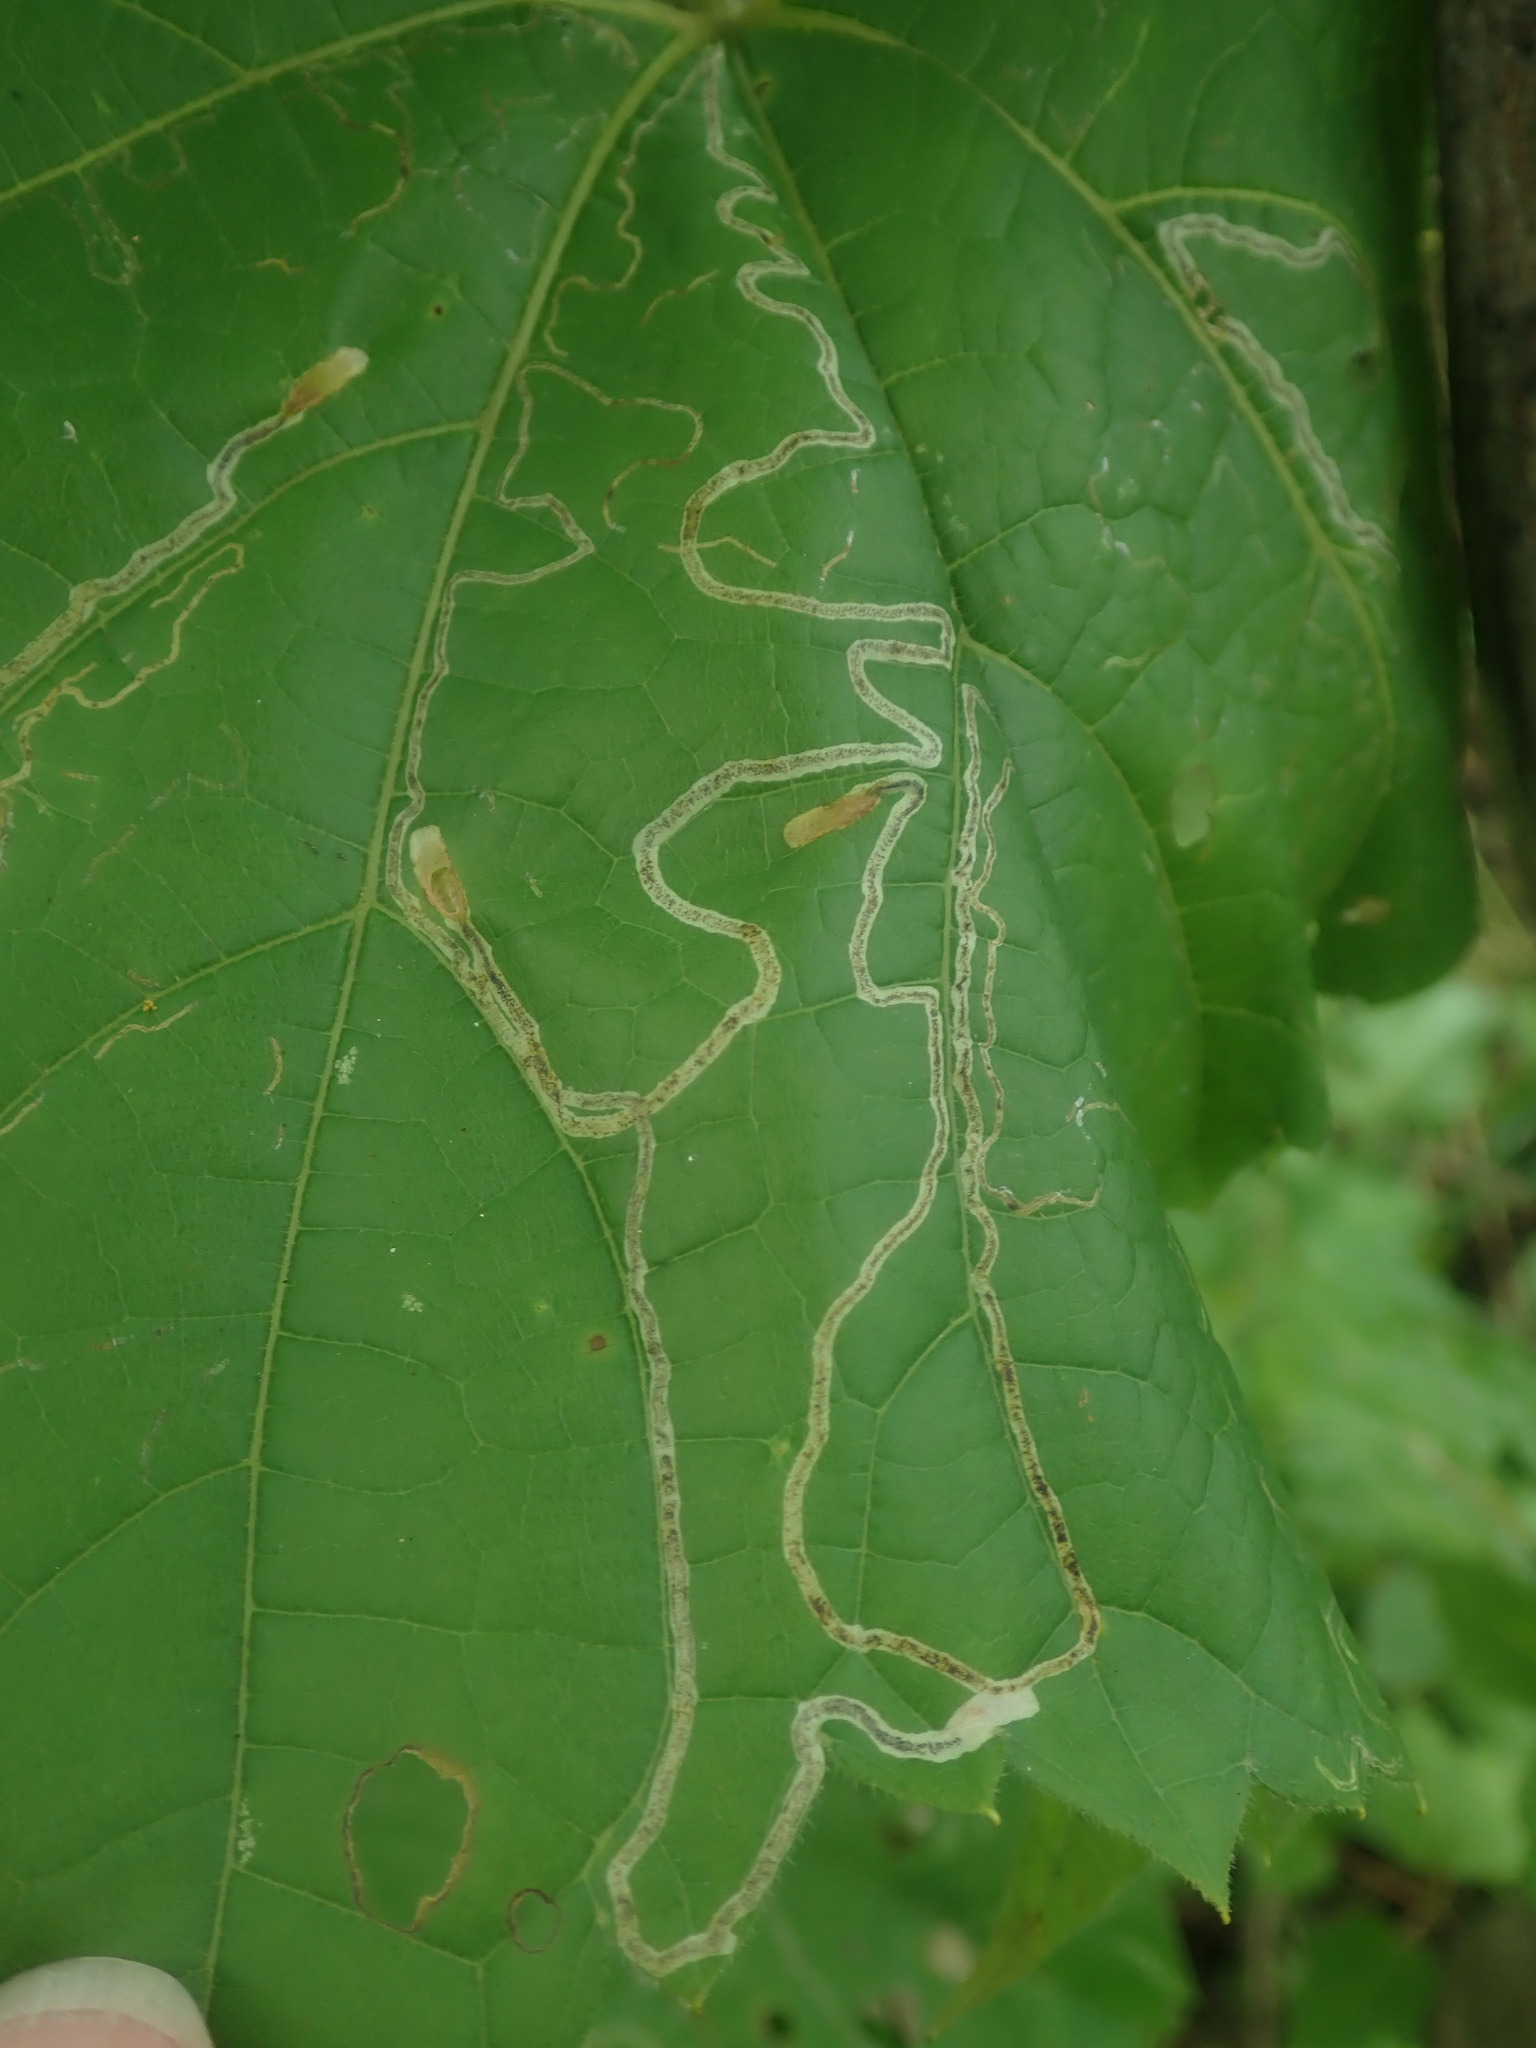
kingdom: Animalia
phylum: Arthropoda
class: Insecta
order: Lepidoptera
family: Gracillariidae
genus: Phyllocnistis
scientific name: Phyllocnistis vitifoliella
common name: Grape leaf-miner moth
